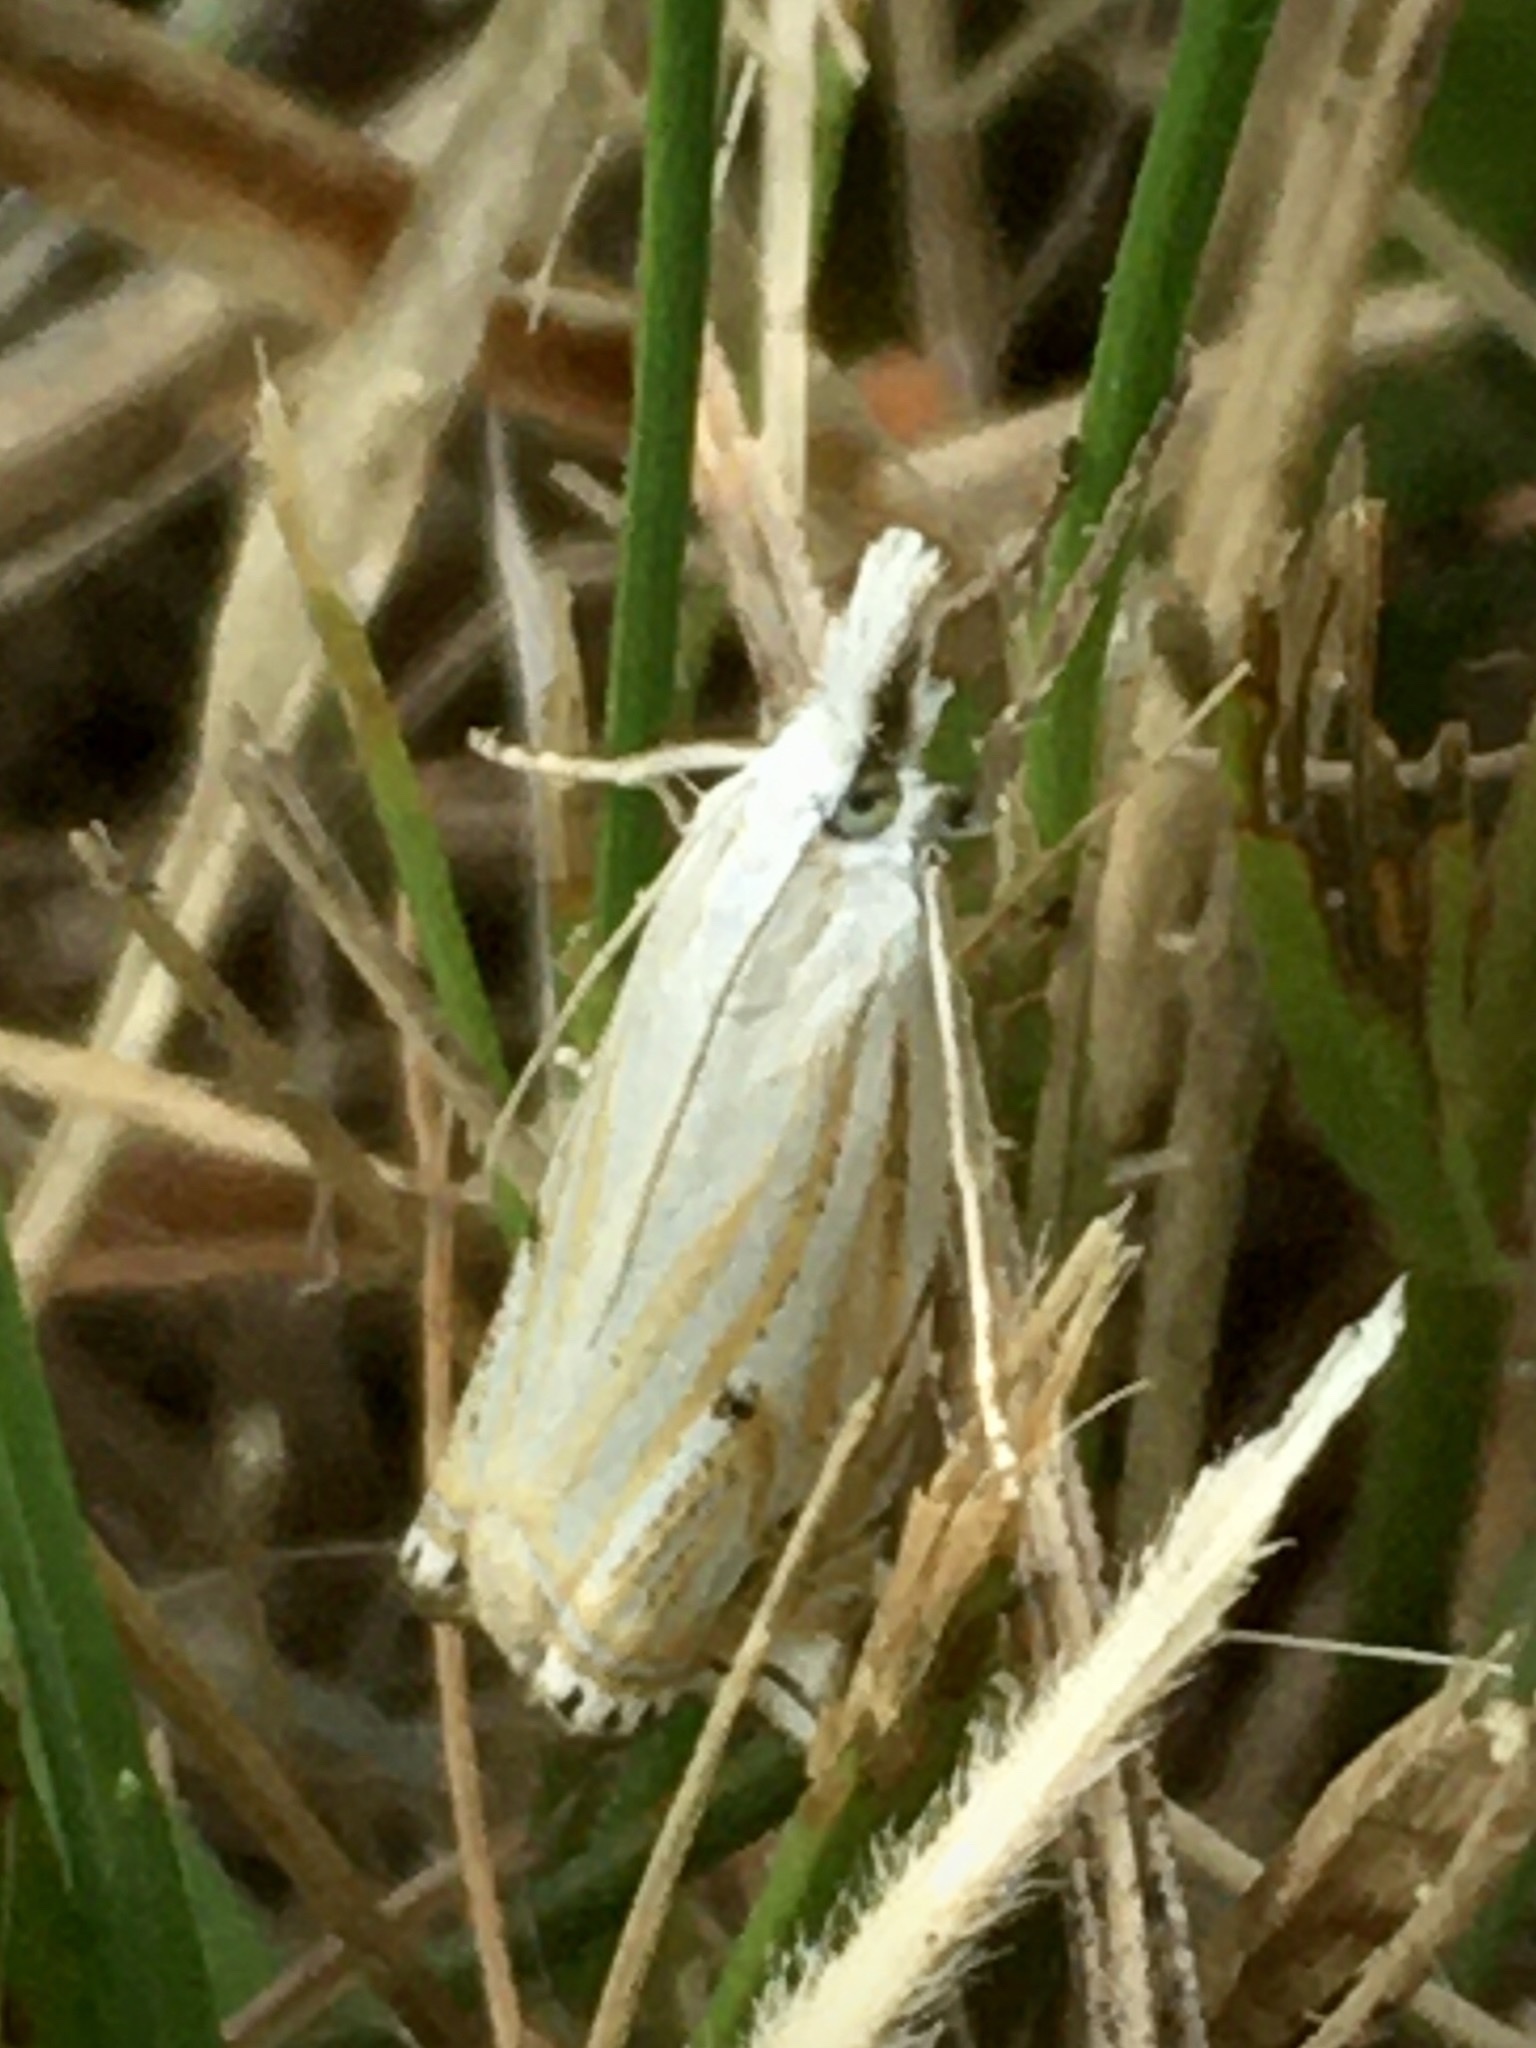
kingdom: Animalia
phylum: Arthropoda
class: Insecta
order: Lepidoptera
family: Crambidae
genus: Crambus
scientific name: Crambus nemorella
